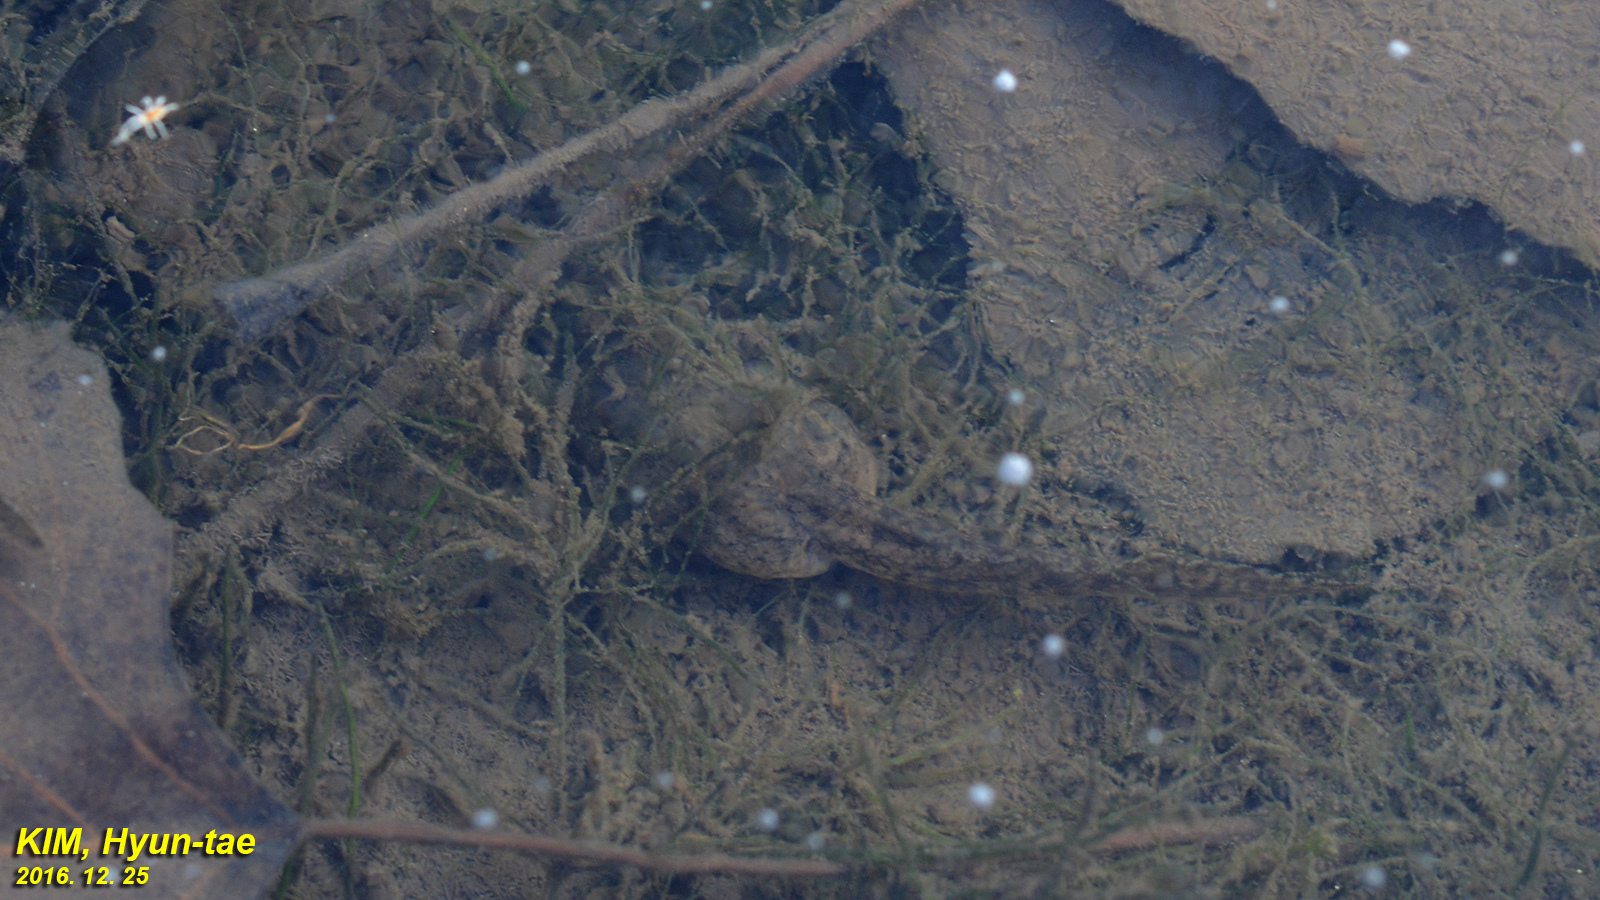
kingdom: Animalia
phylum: Chordata
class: Amphibia
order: Anura
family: Ranidae
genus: Glandirana
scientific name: Glandirana emeljanovi
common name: Northeast china rough-skinned frog
